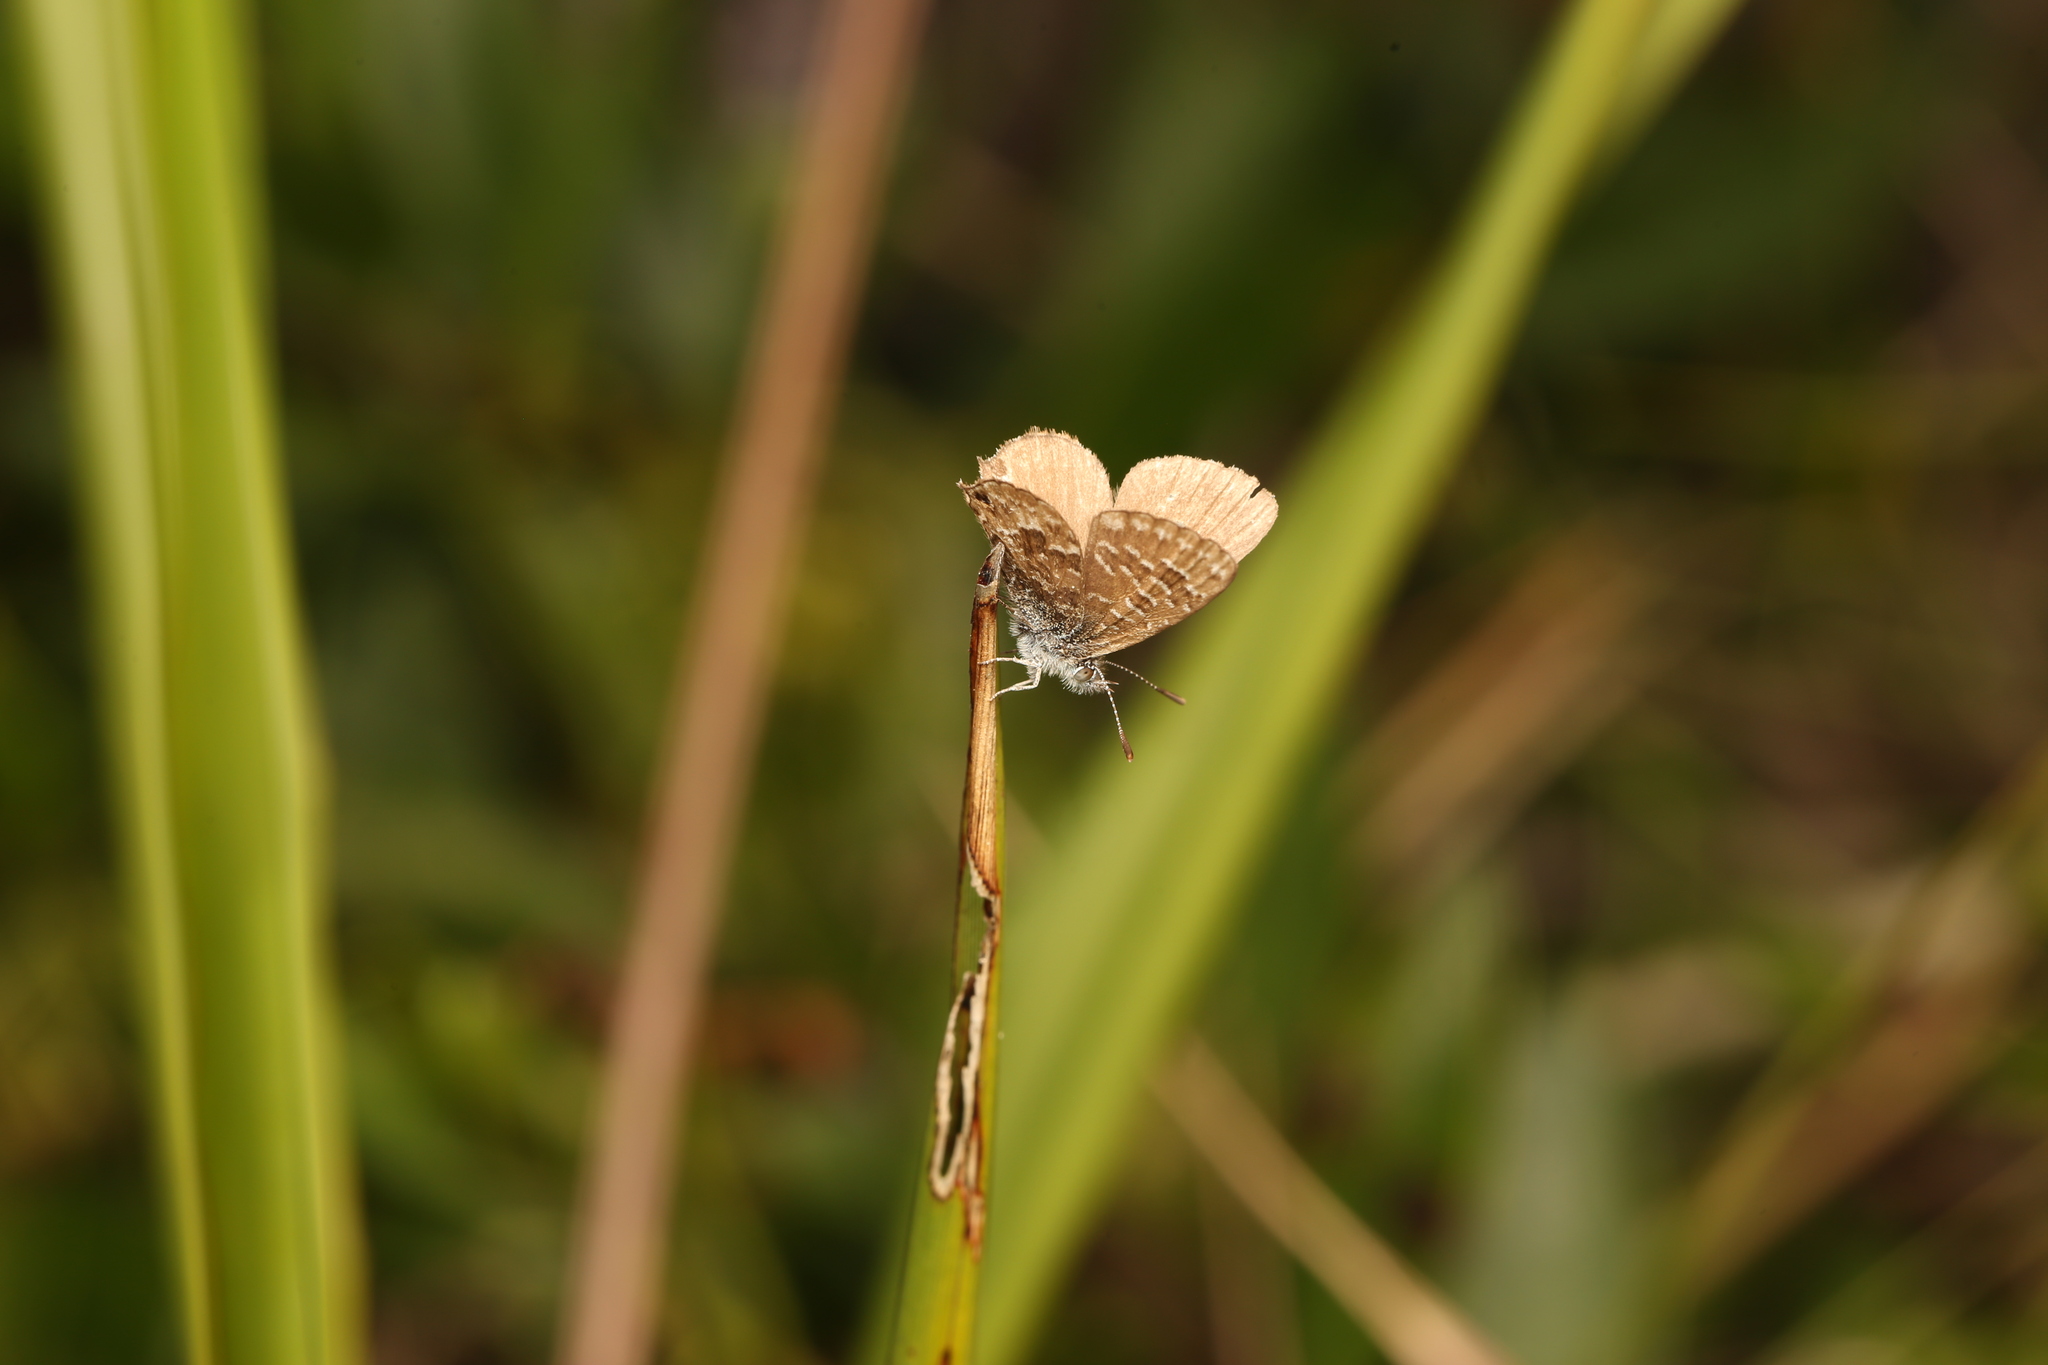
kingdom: Animalia
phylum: Arthropoda
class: Insecta
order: Lepidoptera
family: Lycaenidae
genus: Theclinesthes
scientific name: Theclinesthes sulpitius
